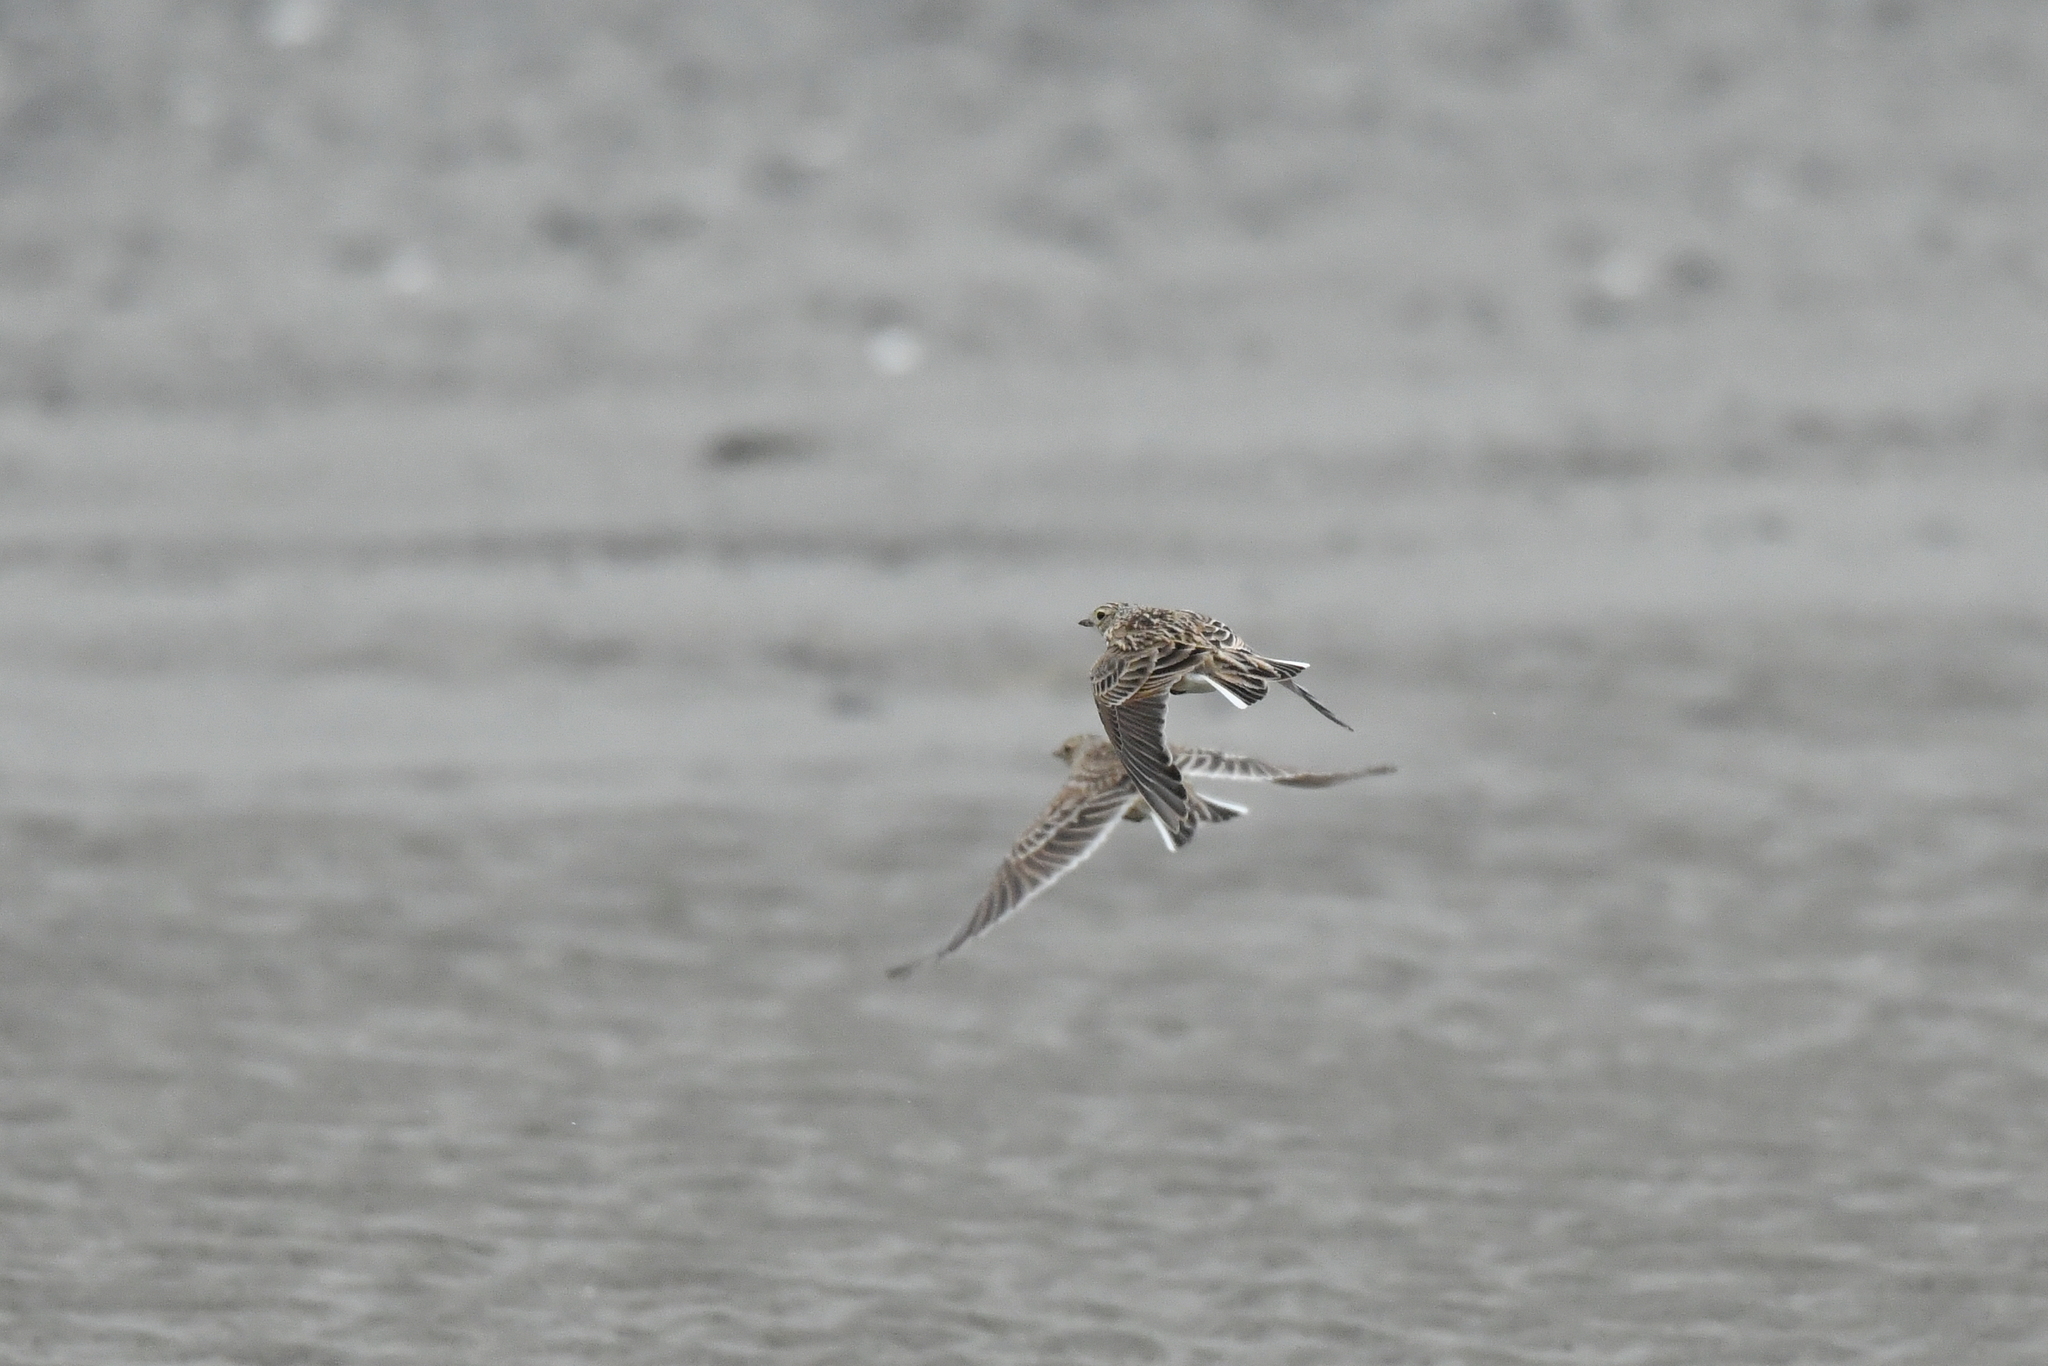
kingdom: Animalia
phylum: Chordata
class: Aves
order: Passeriformes
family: Alaudidae
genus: Alauda
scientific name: Alauda arvensis
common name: Eurasian skylark
